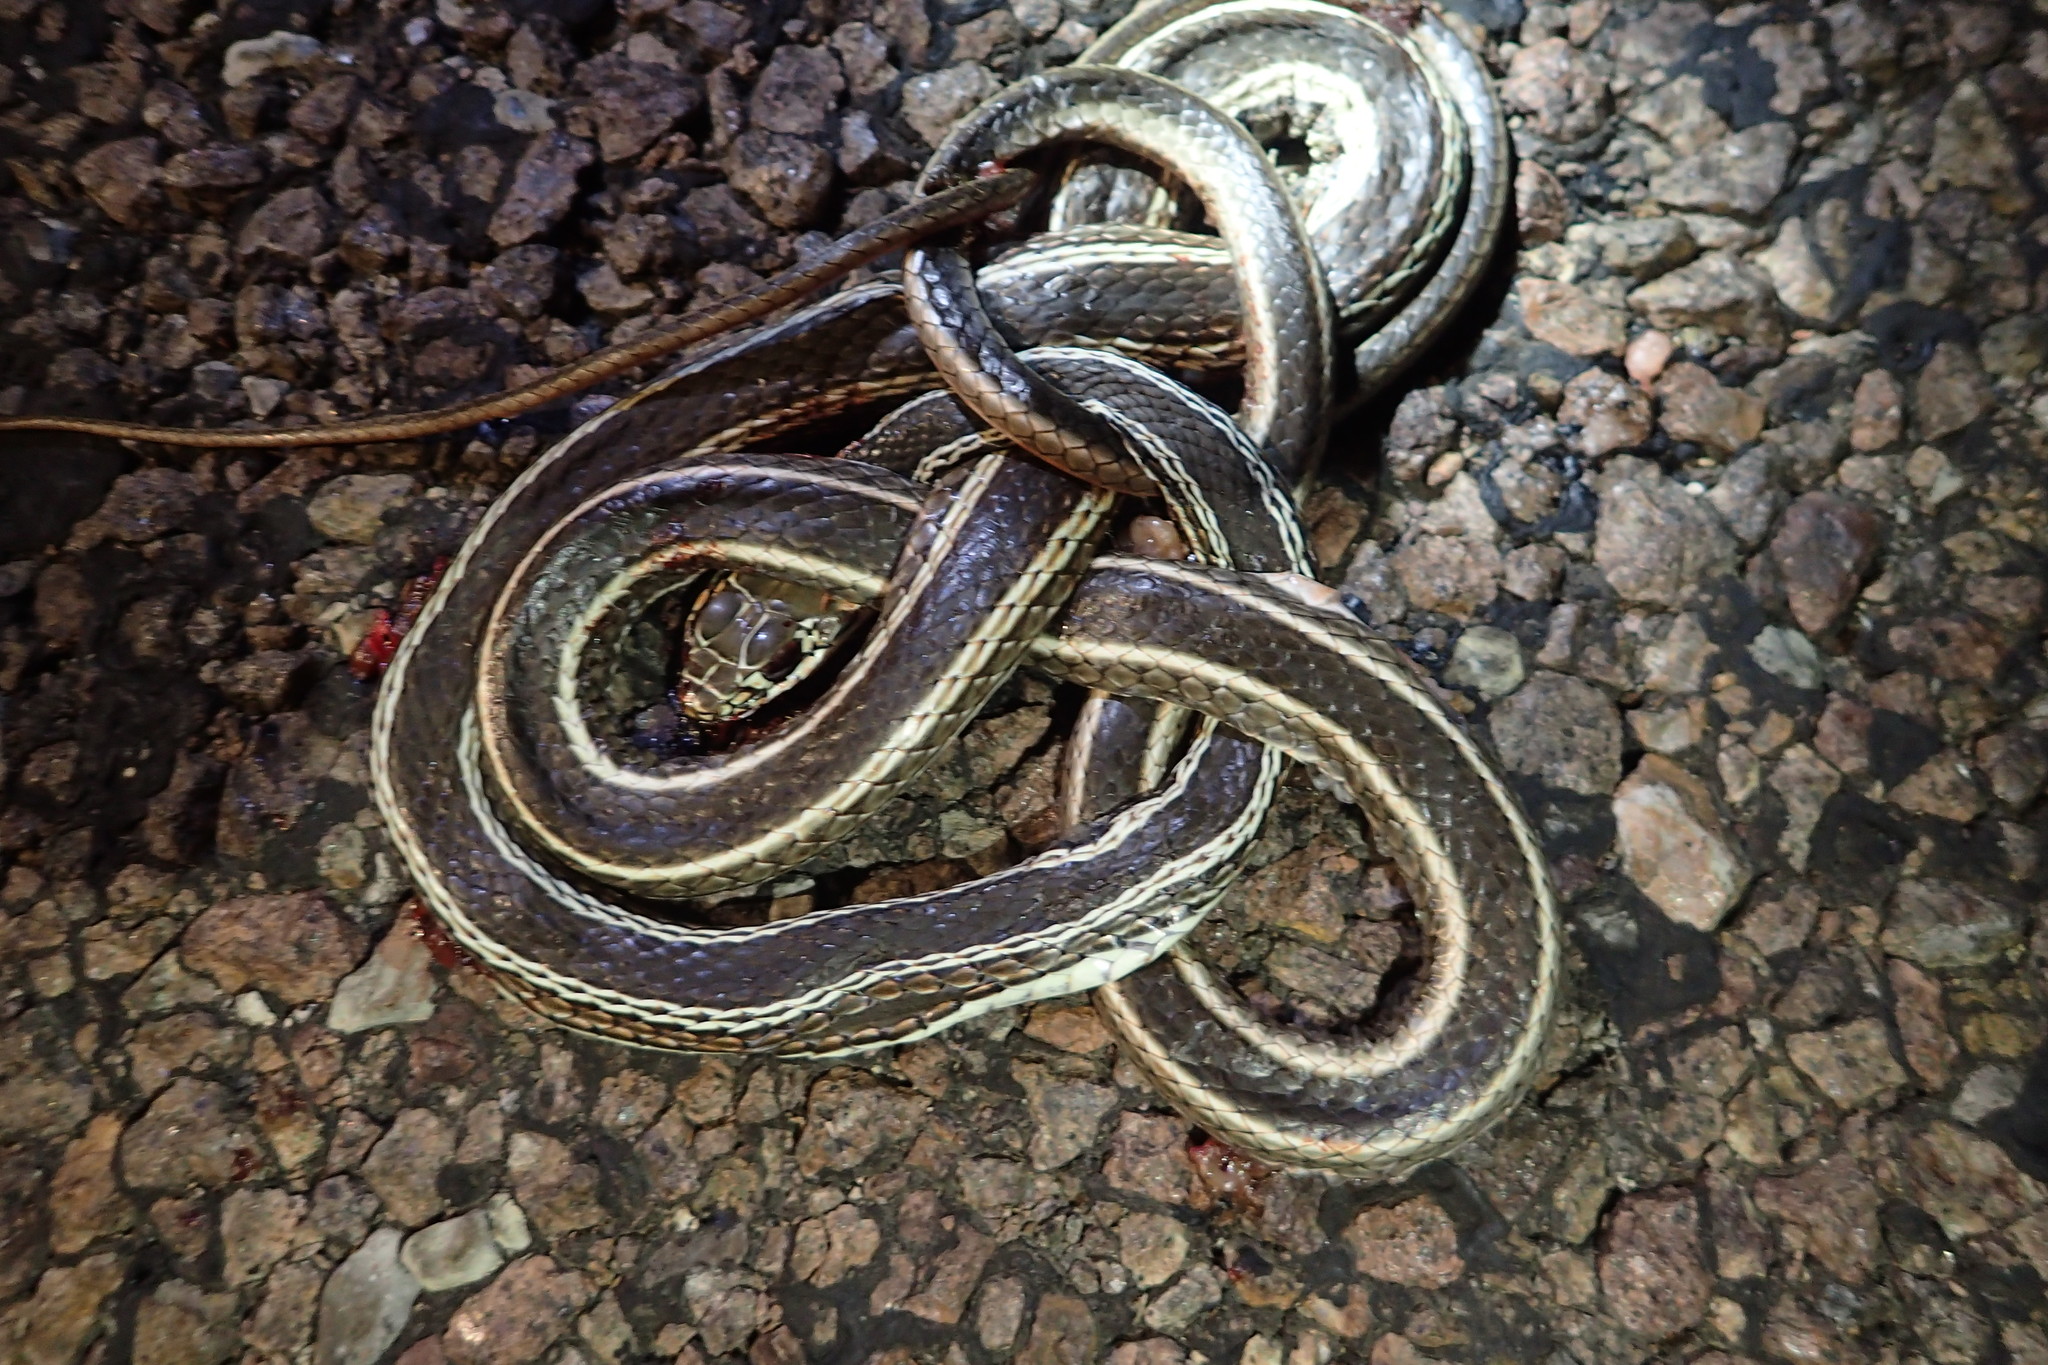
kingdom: Animalia
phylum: Chordata
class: Squamata
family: Colubridae
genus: Masticophis
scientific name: Masticophis taeniatus
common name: Striped whipsnake
